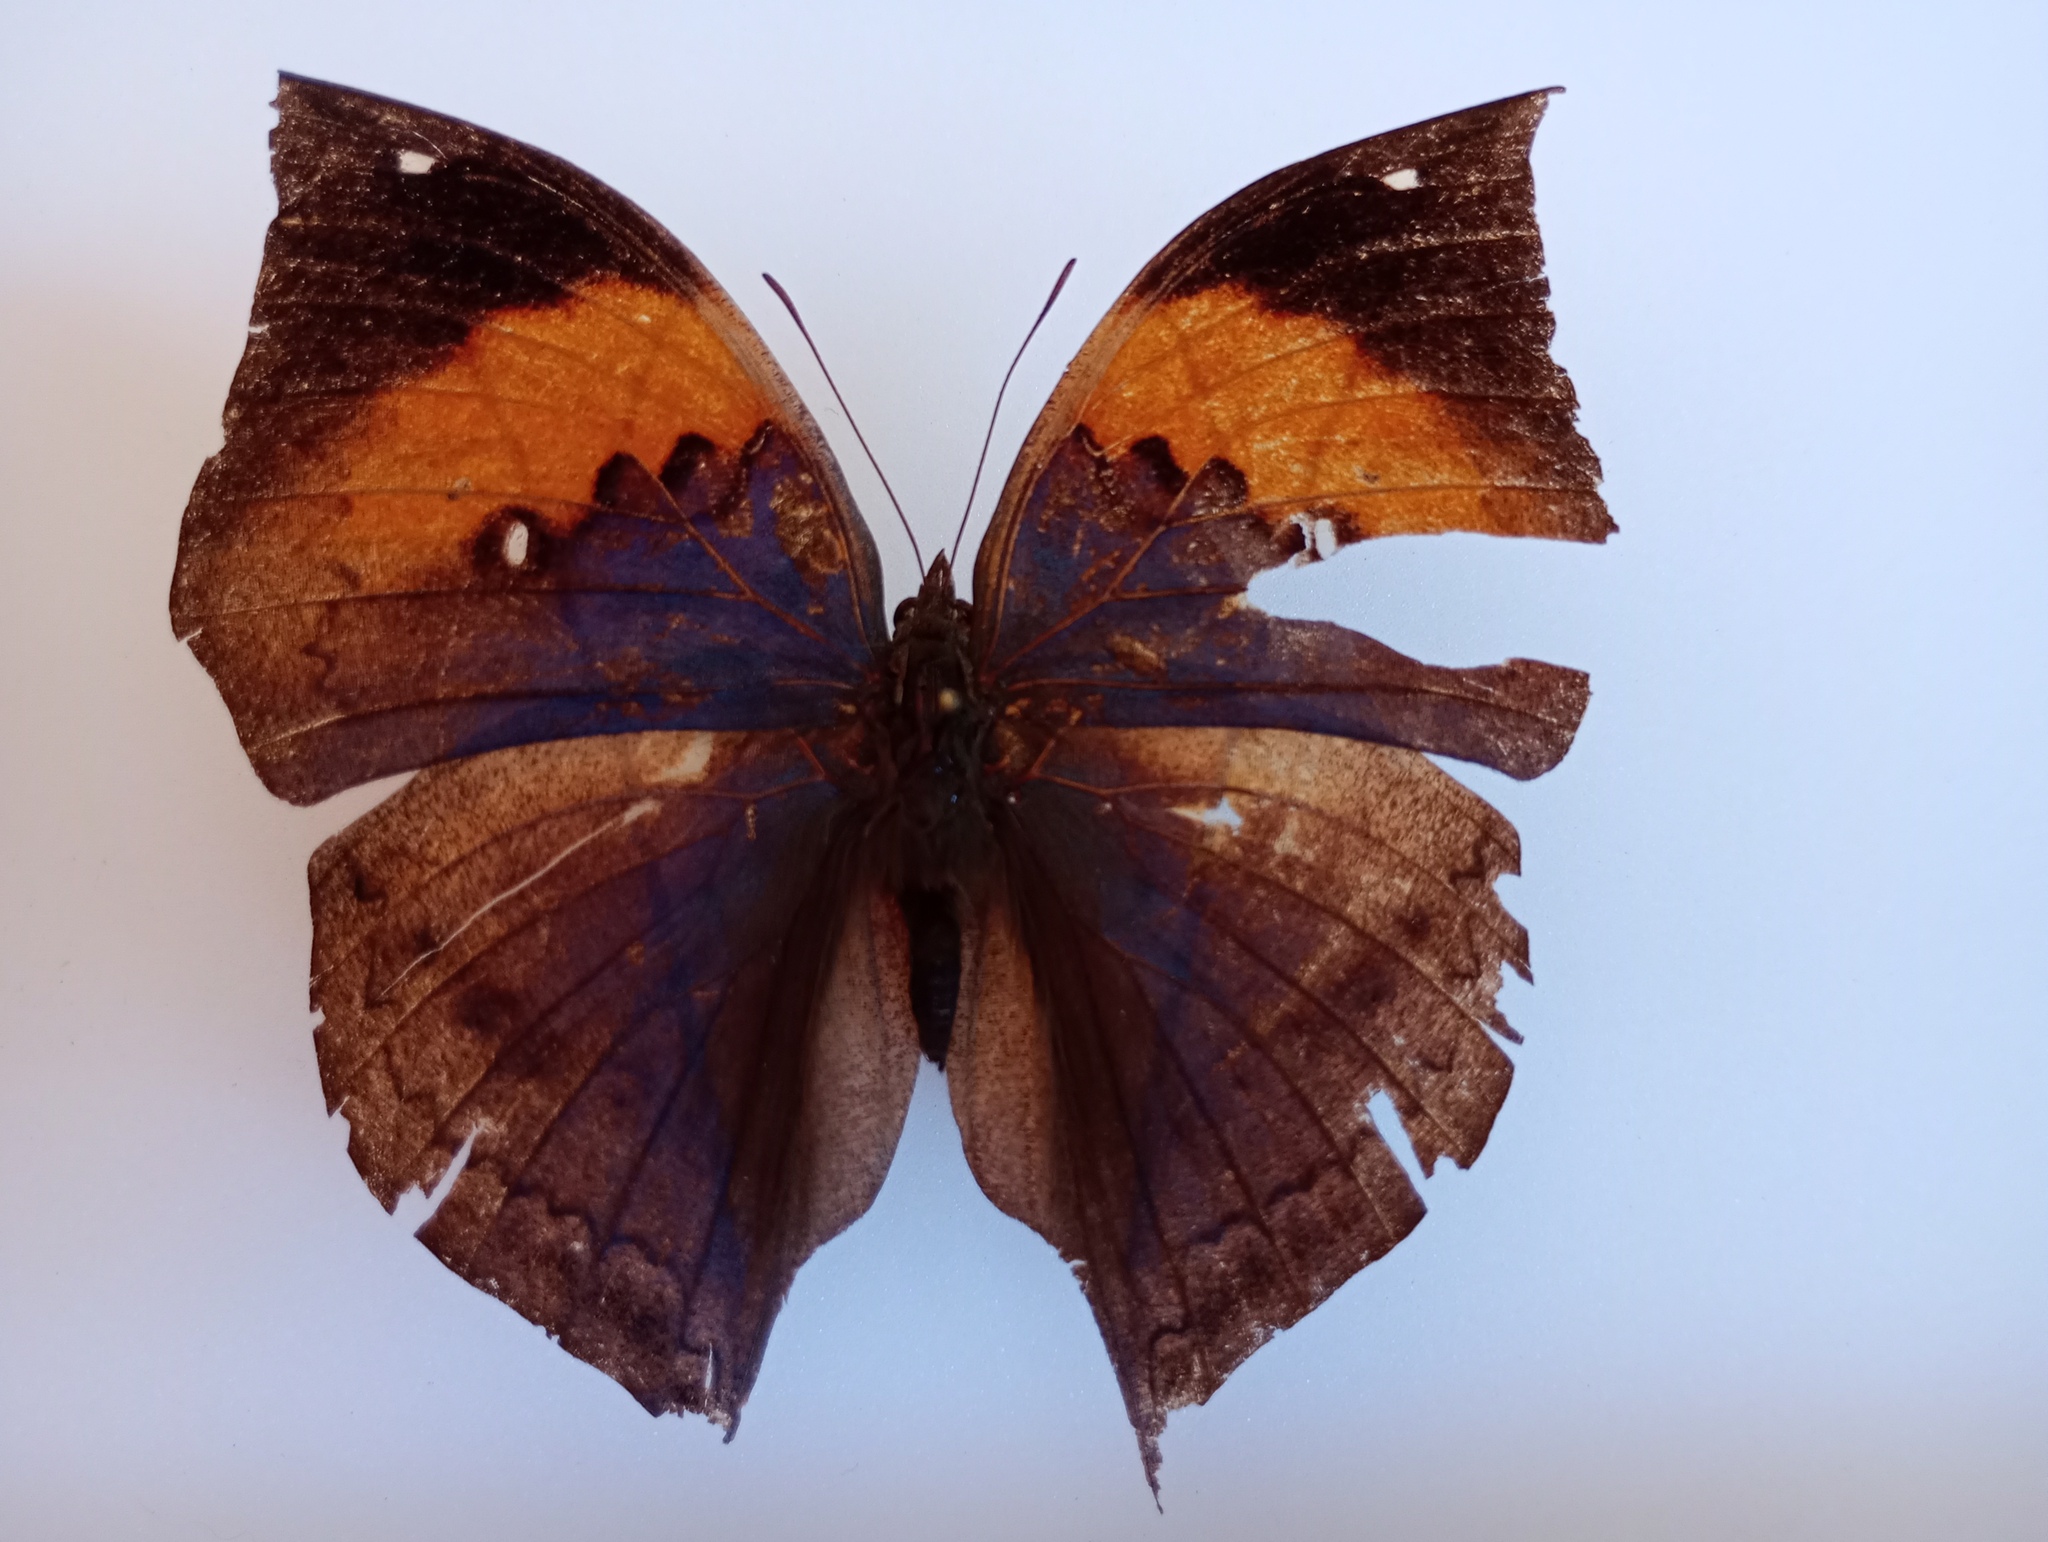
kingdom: Animalia
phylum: Arthropoda
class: Insecta
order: Lepidoptera
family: Nymphalidae
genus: Kallima
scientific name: Kallima inachus
